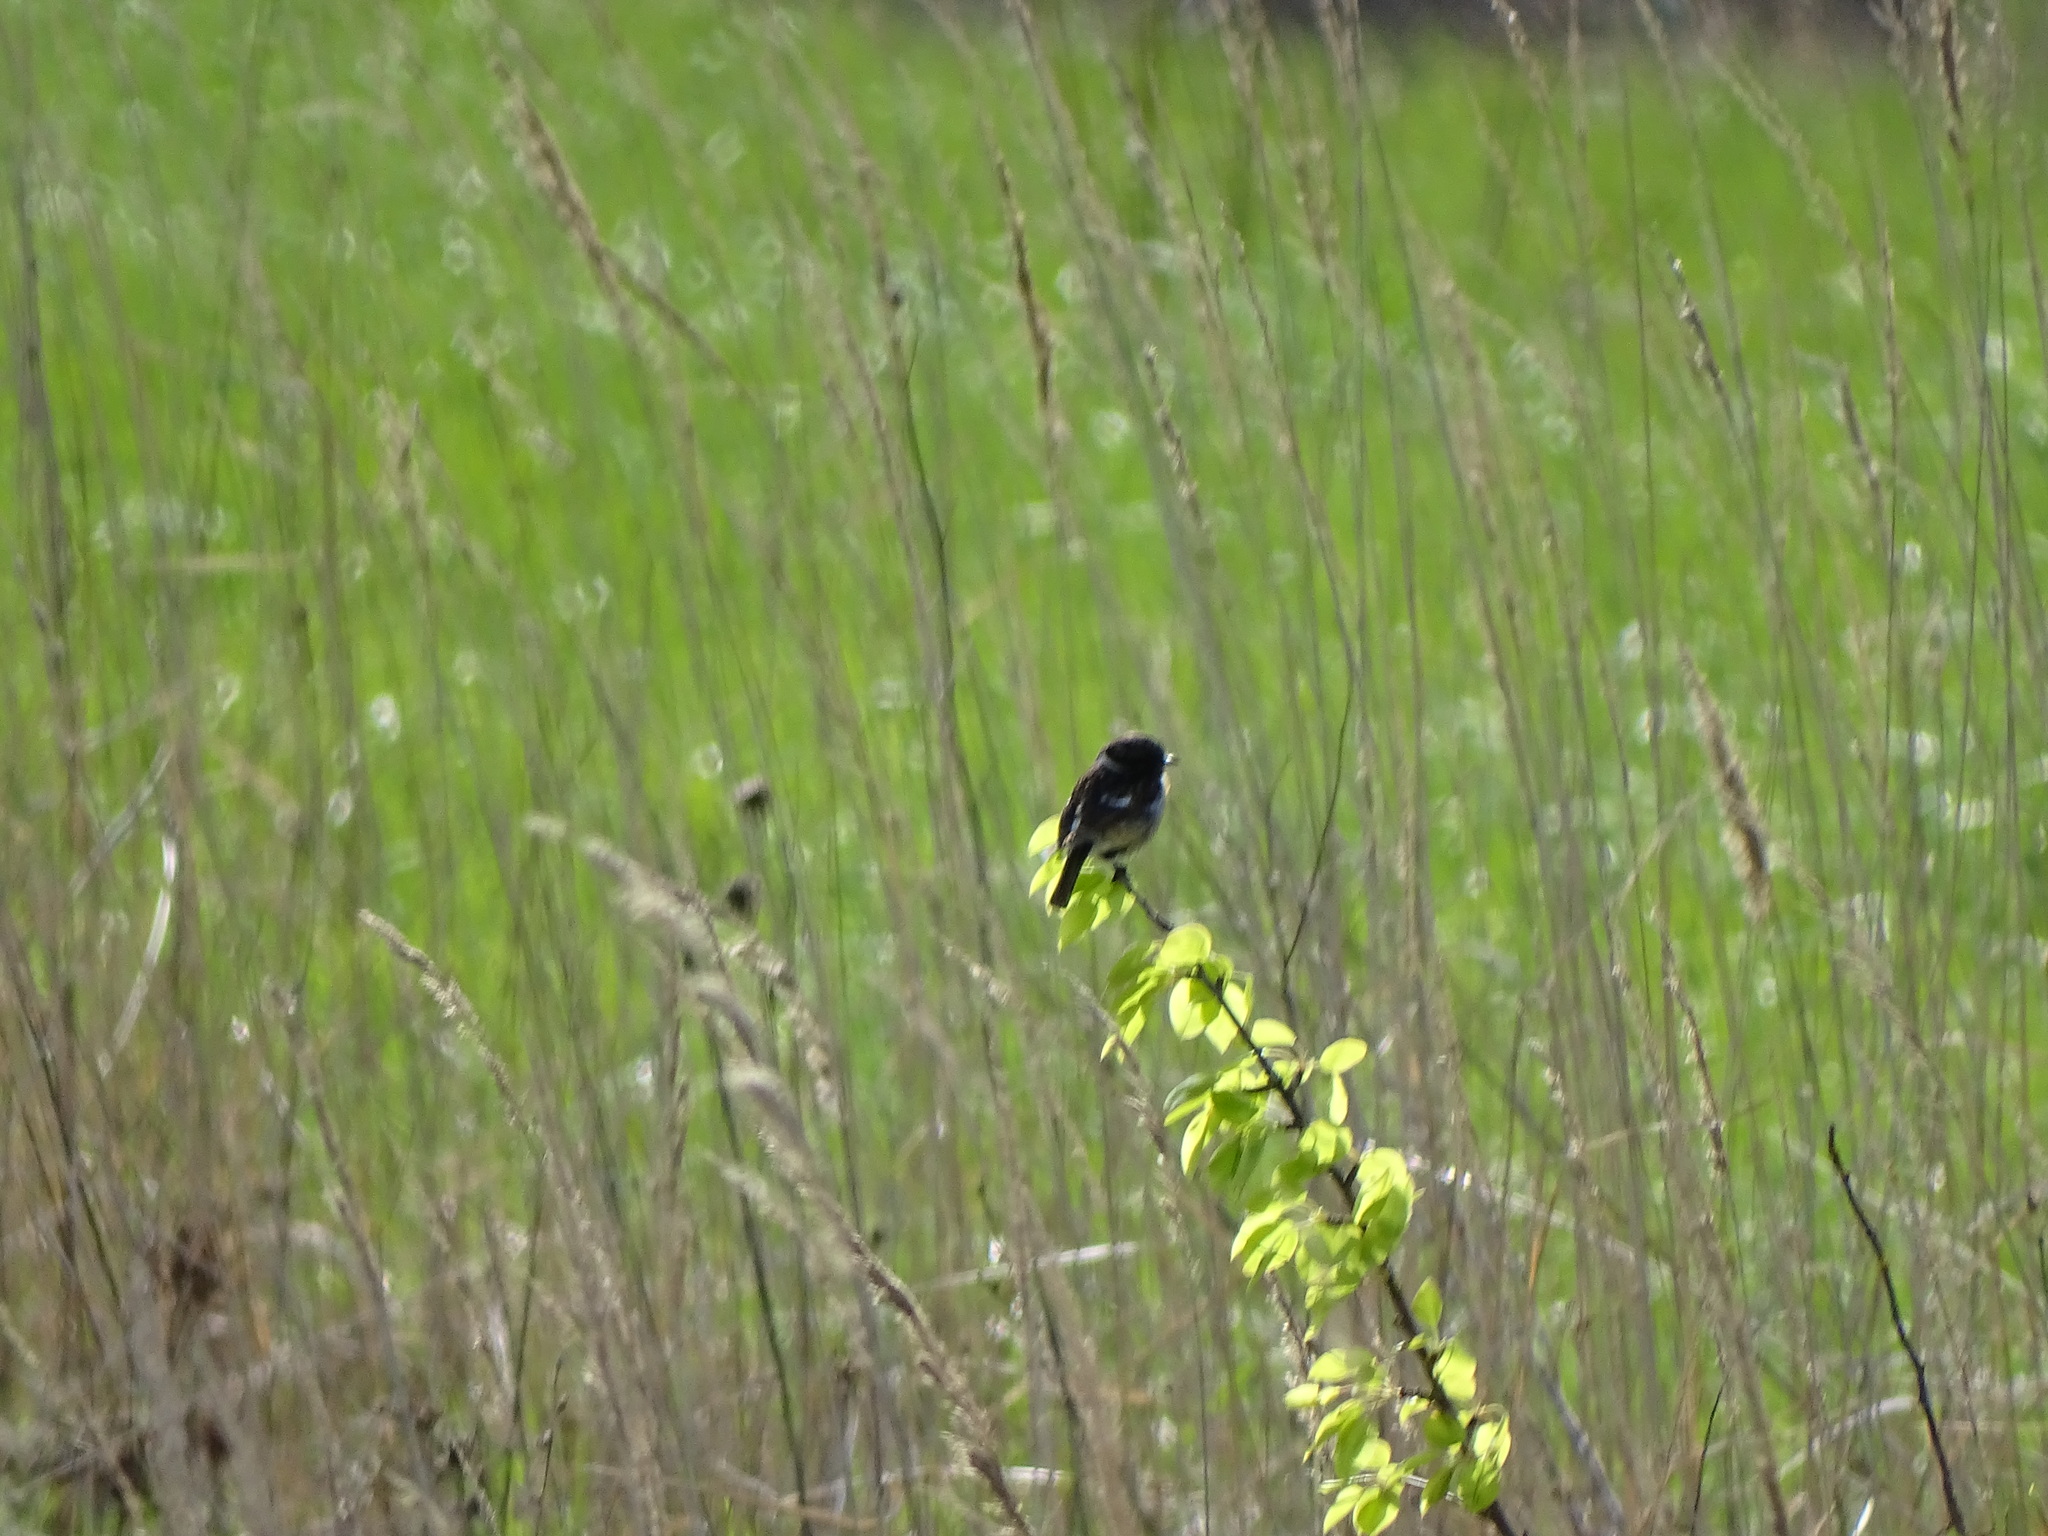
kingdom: Animalia
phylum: Chordata
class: Aves
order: Passeriformes
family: Muscicapidae
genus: Saxicola
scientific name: Saxicola rubicola
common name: European stonechat
